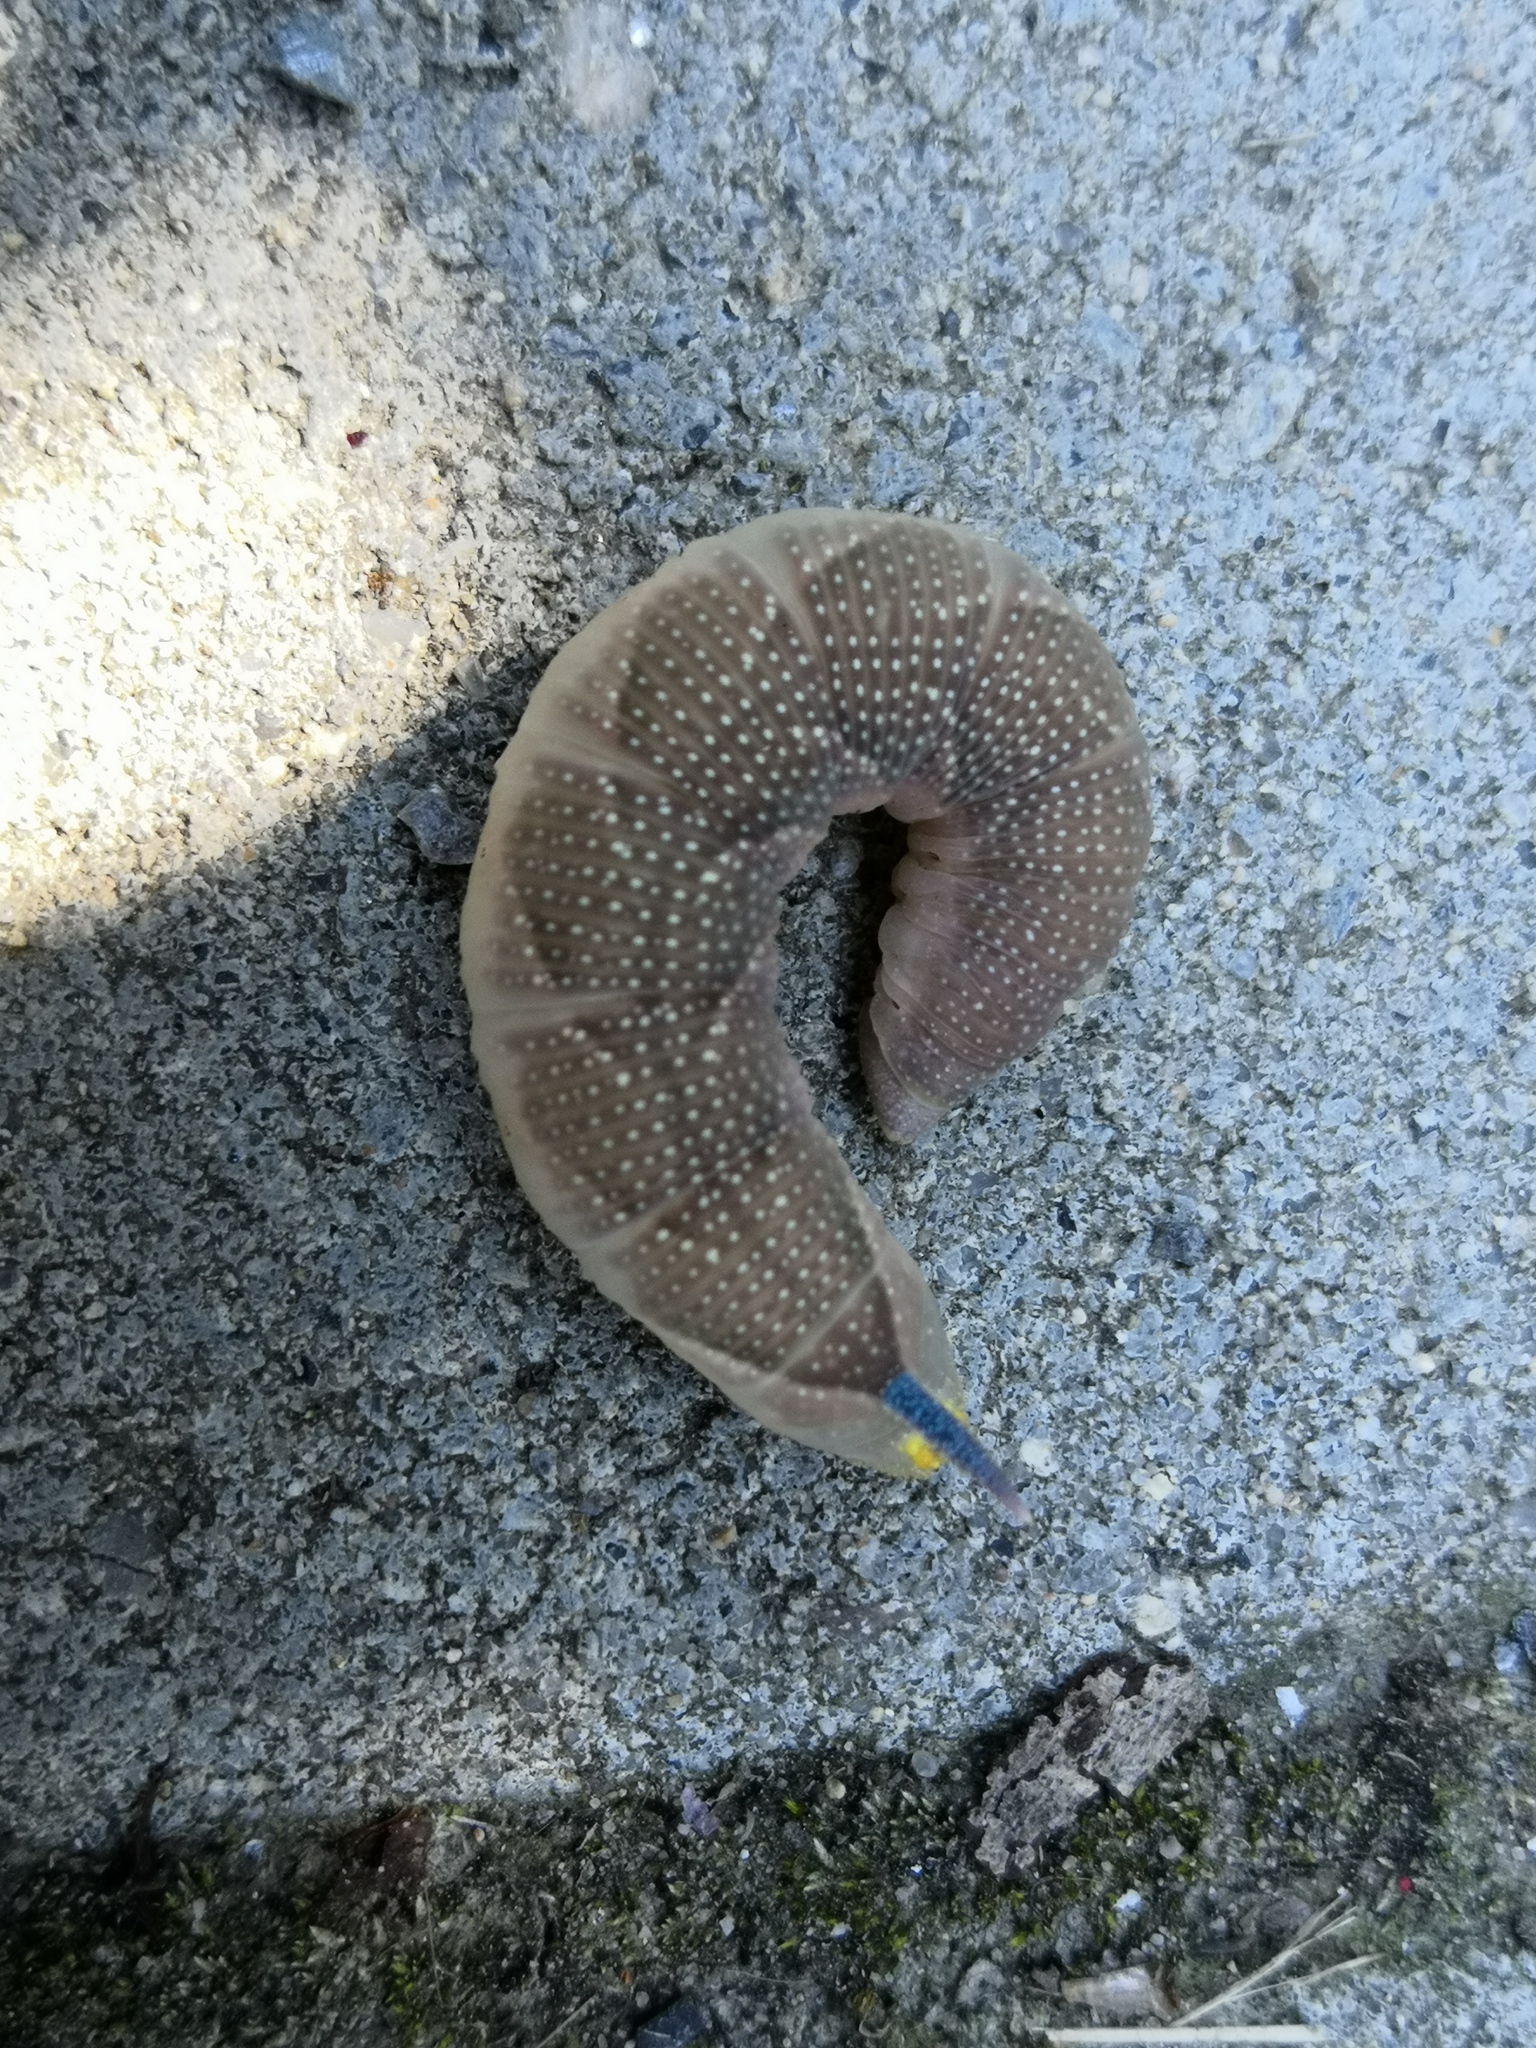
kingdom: Animalia
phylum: Arthropoda
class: Insecta
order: Lepidoptera
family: Sphingidae
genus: Mimas
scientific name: Mimas tiliae
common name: Lime hawk-moth
